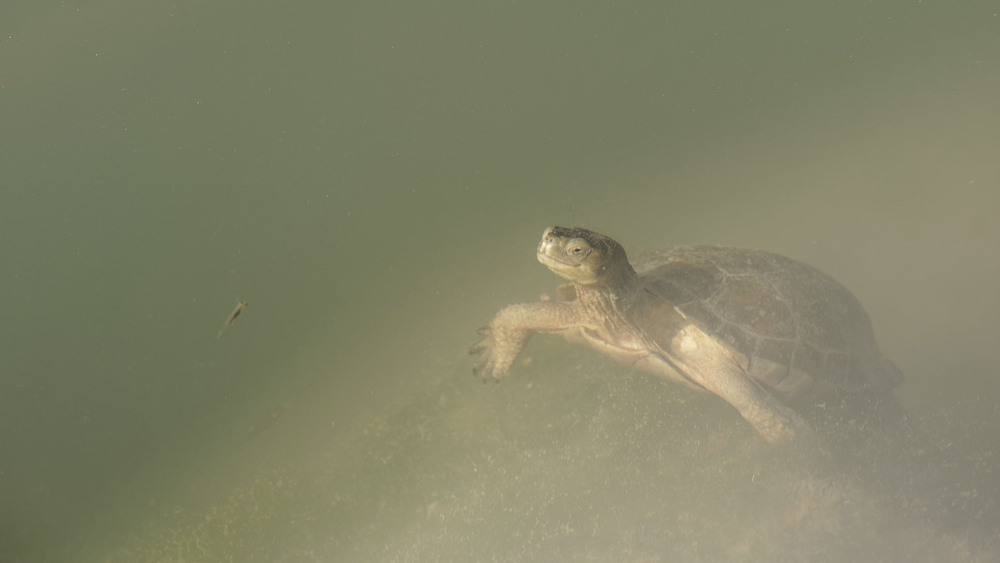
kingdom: Animalia
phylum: Chordata
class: Testudines
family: Geoemydidae
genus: Mauremys
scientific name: Mauremys leprosa
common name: Mediterranean pond turtle
